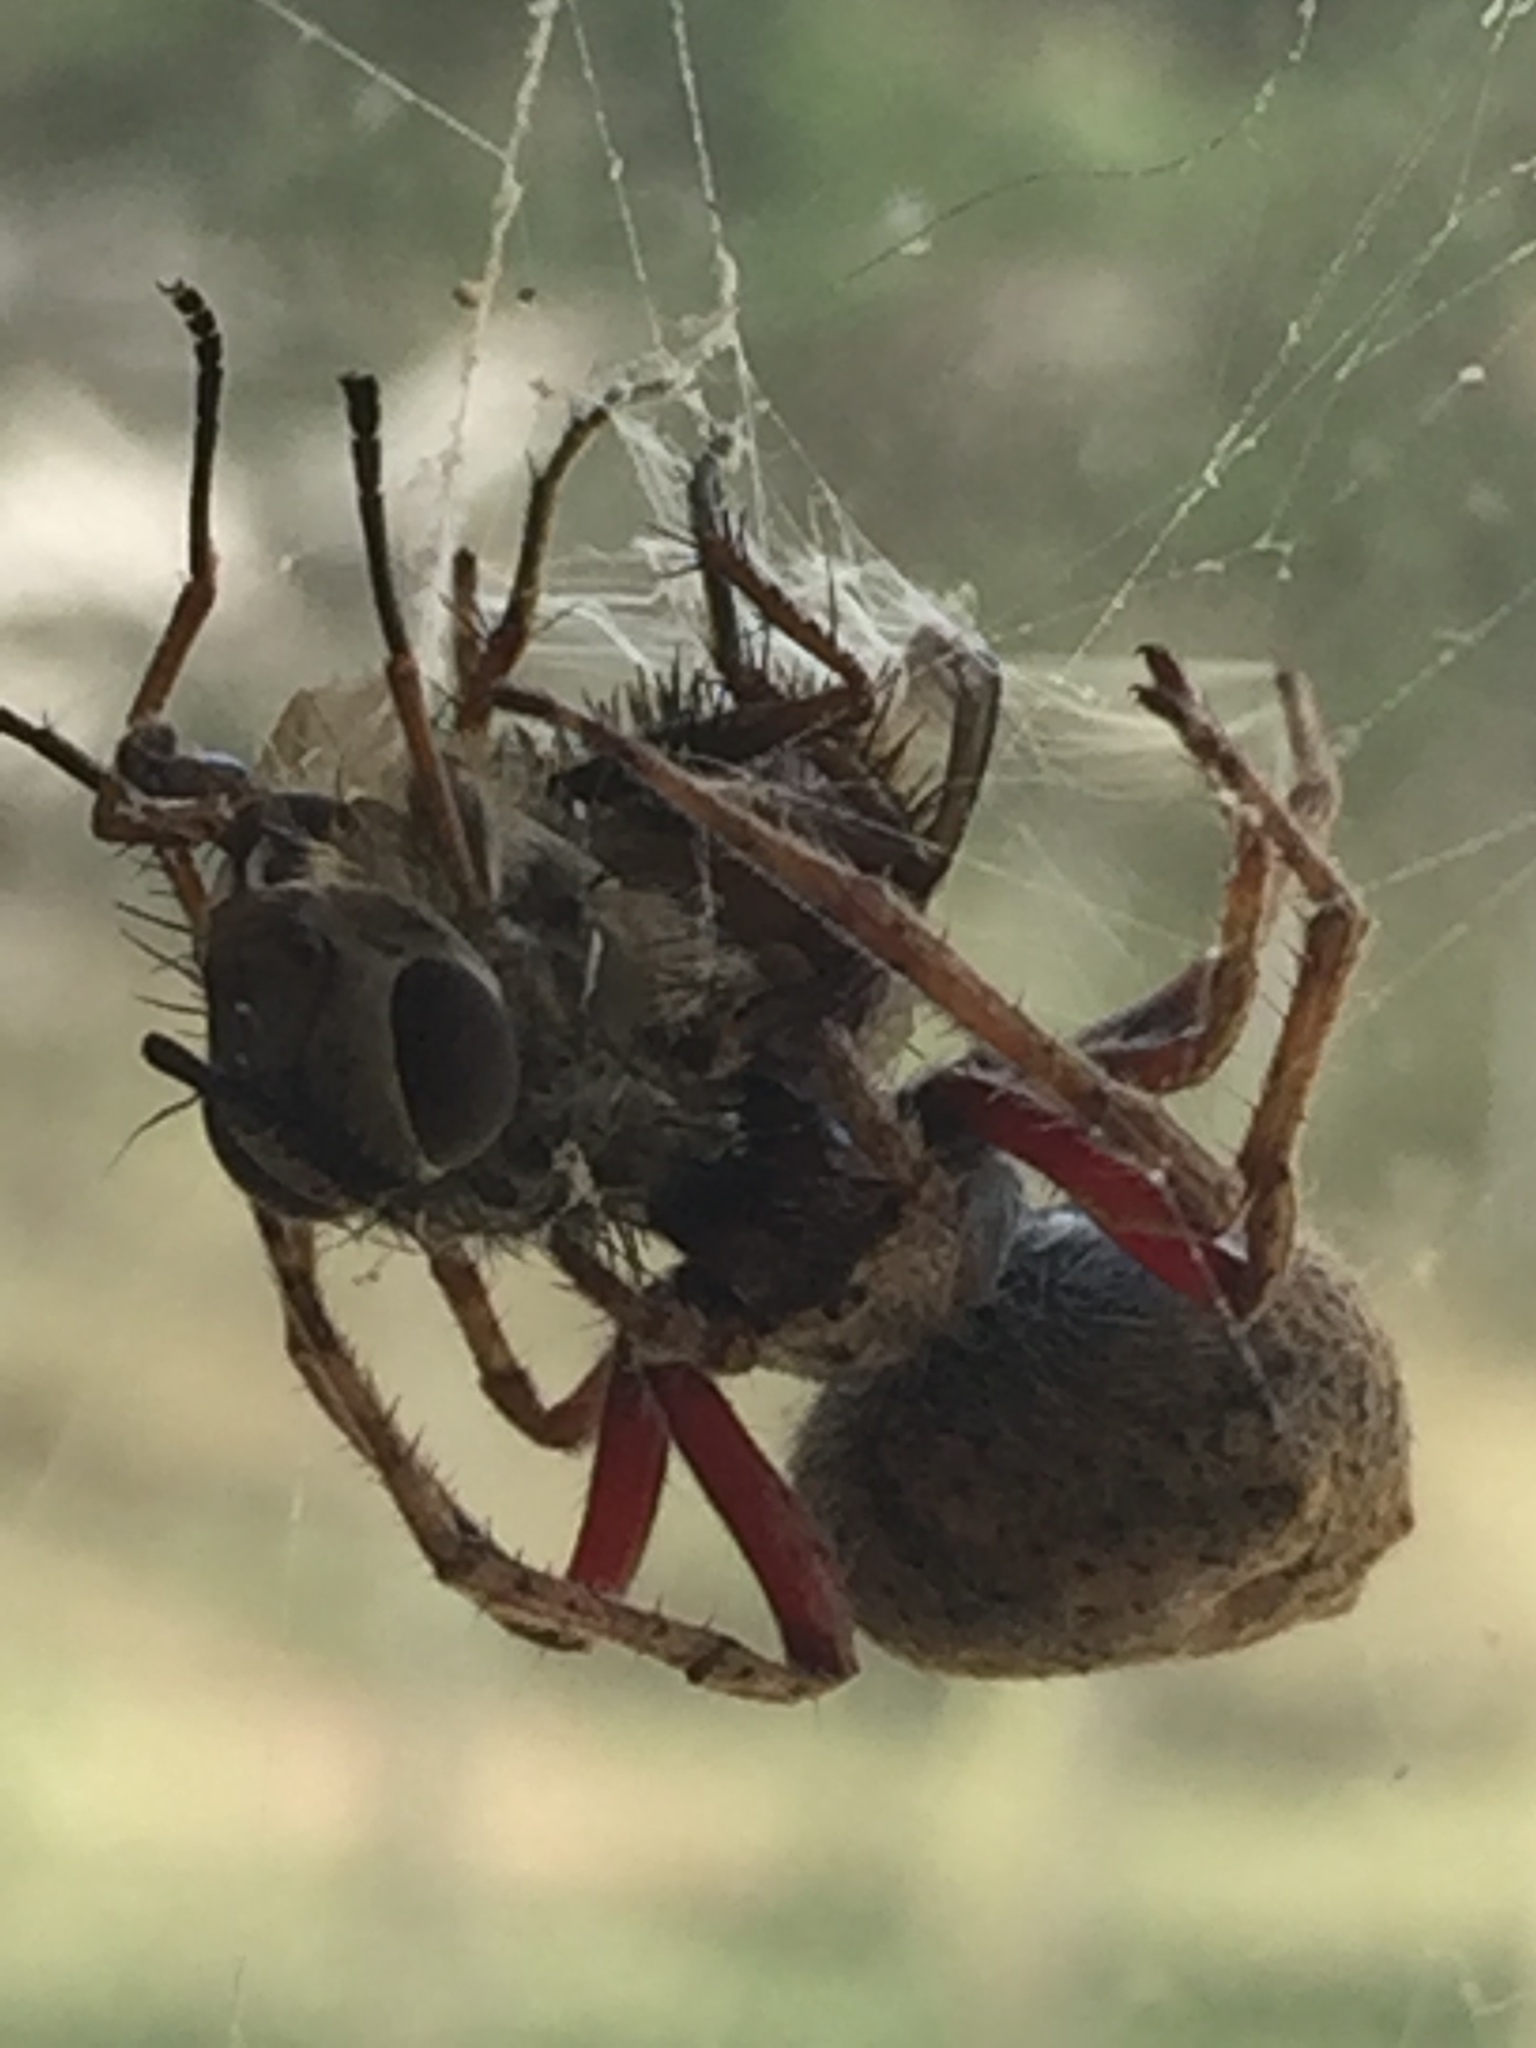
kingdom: Animalia
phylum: Arthropoda
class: Arachnida
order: Araneae
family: Araneidae
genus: Eriophora
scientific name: Eriophora pustulosa
